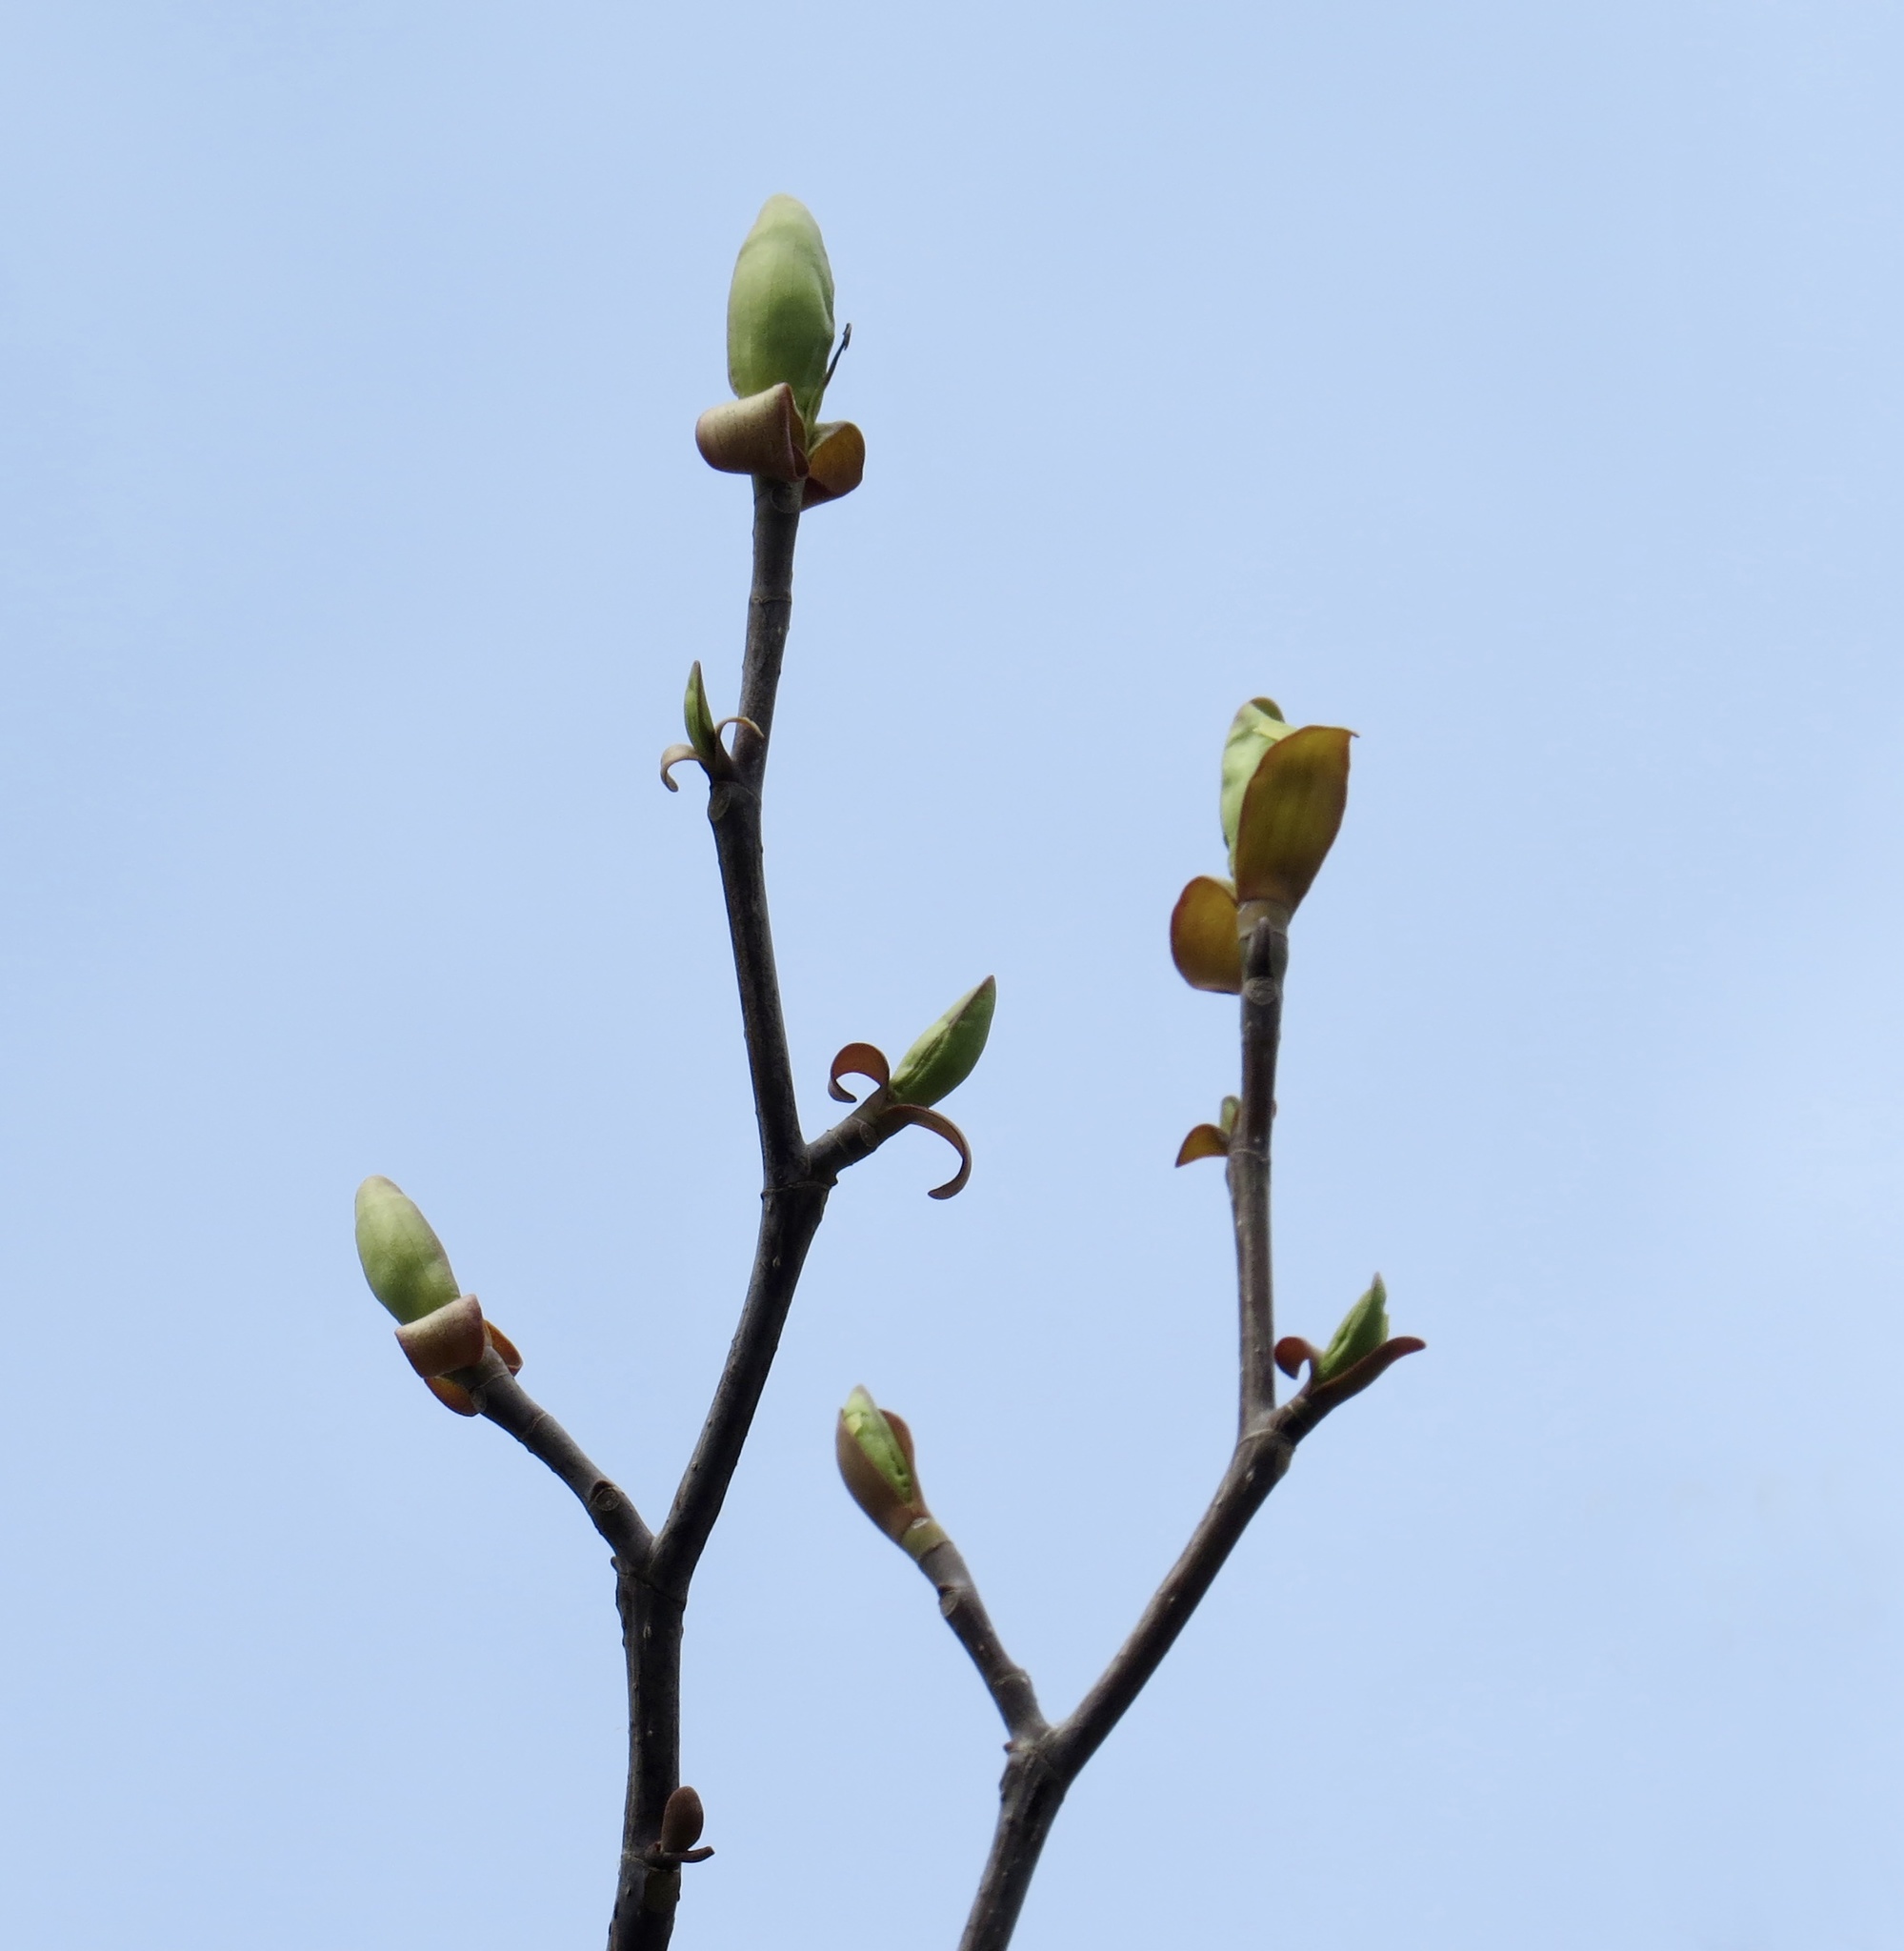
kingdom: Plantae
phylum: Tracheophyta
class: Magnoliopsida
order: Magnoliales
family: Magnoliaceae
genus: Liriodendron
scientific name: Liriodendron tulipifera
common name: Tulip tree
